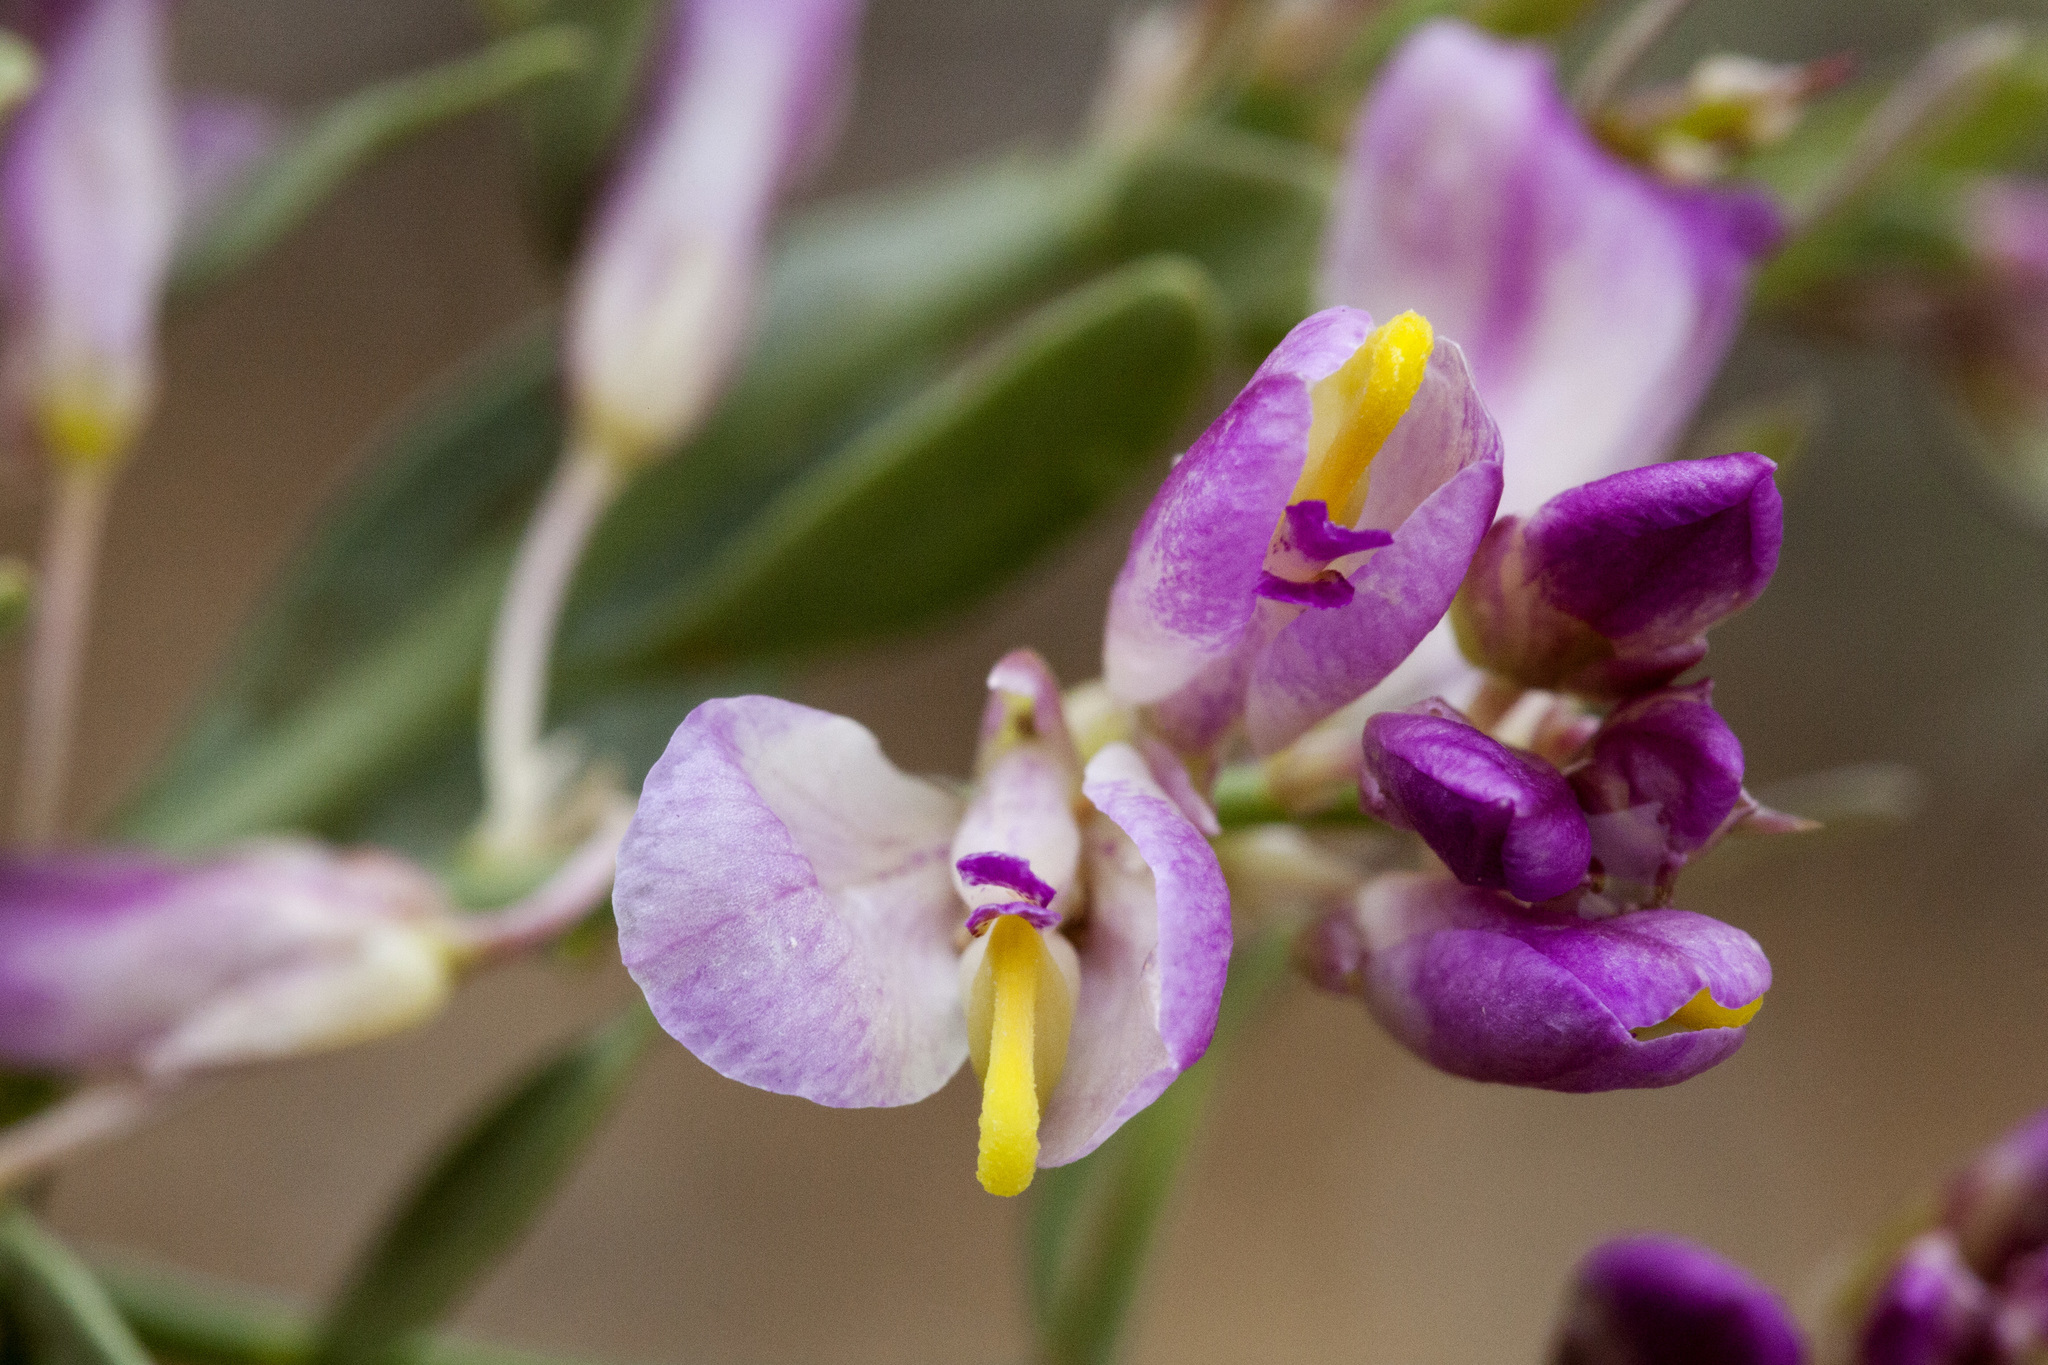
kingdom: Plantae
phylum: Tracheophyta
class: Magnoliopsida
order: Fabales
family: Polygalaceae
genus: Rhinotropis
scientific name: Rhinotropis subspinosa
